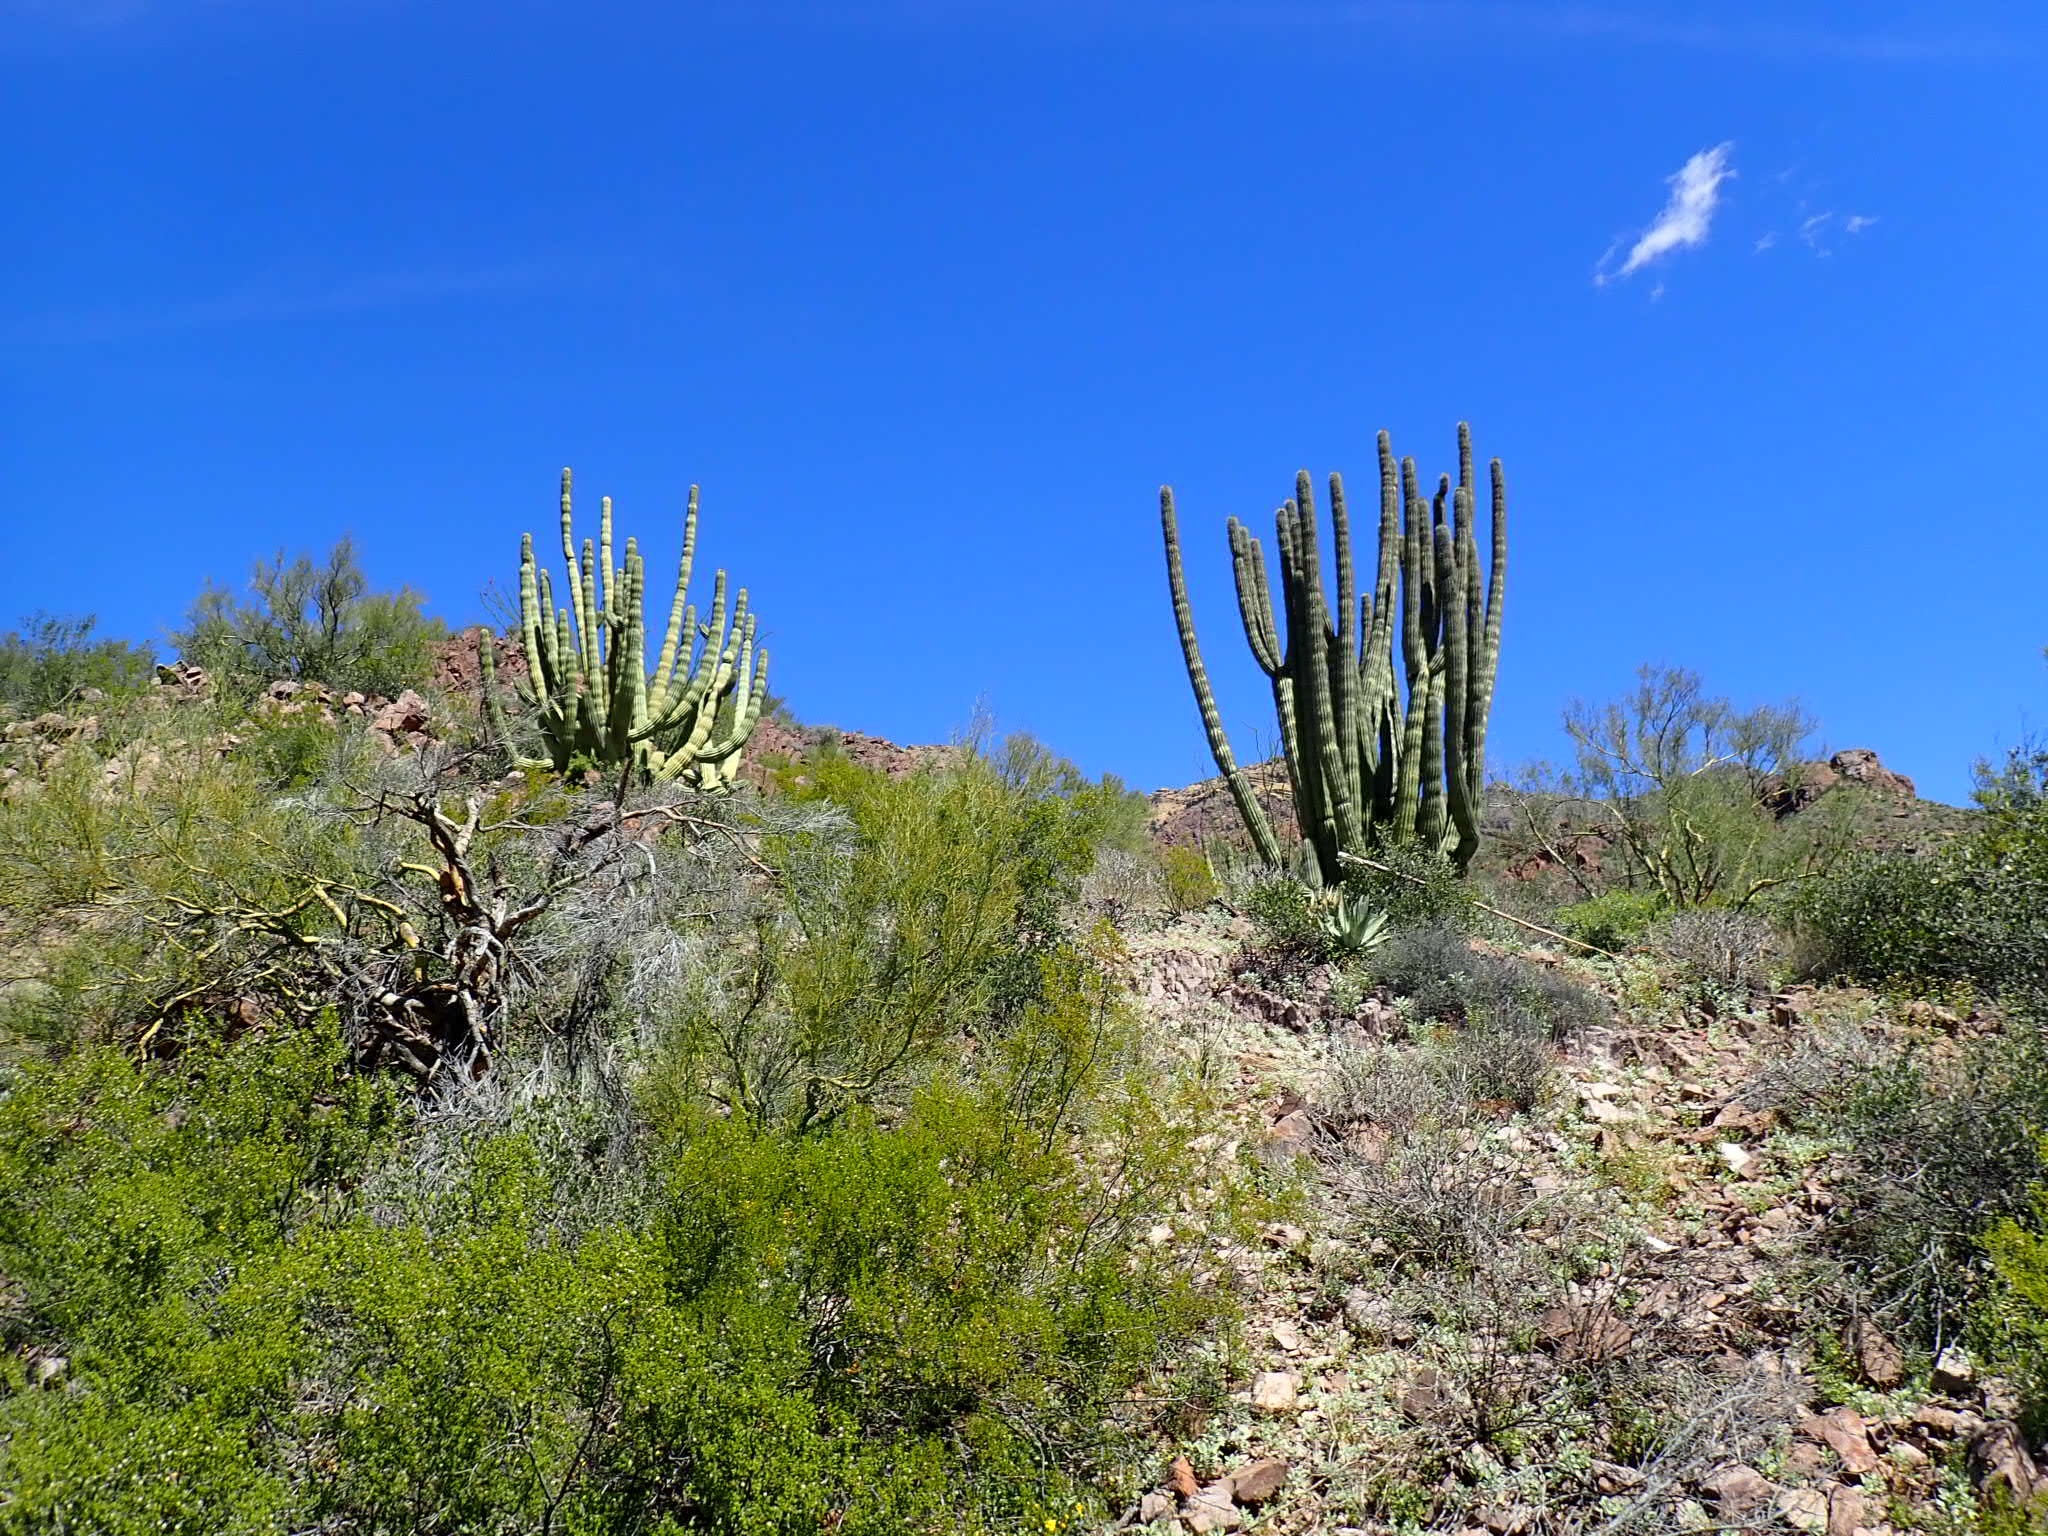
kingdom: Plantae
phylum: Tracheophyta
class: Magnoliopsida
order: Caryophyllales
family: Cactaceae
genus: Stenocereus
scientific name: Stenocereus thurberi
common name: Organ pipe cactus
